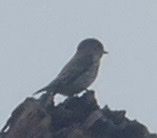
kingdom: Animalia
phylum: Chordata
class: Aves
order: Passeriformes
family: Muscicapidae
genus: Muscicapa
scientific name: Muscicapa griseisticta
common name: Gray-streaked flycatcher
